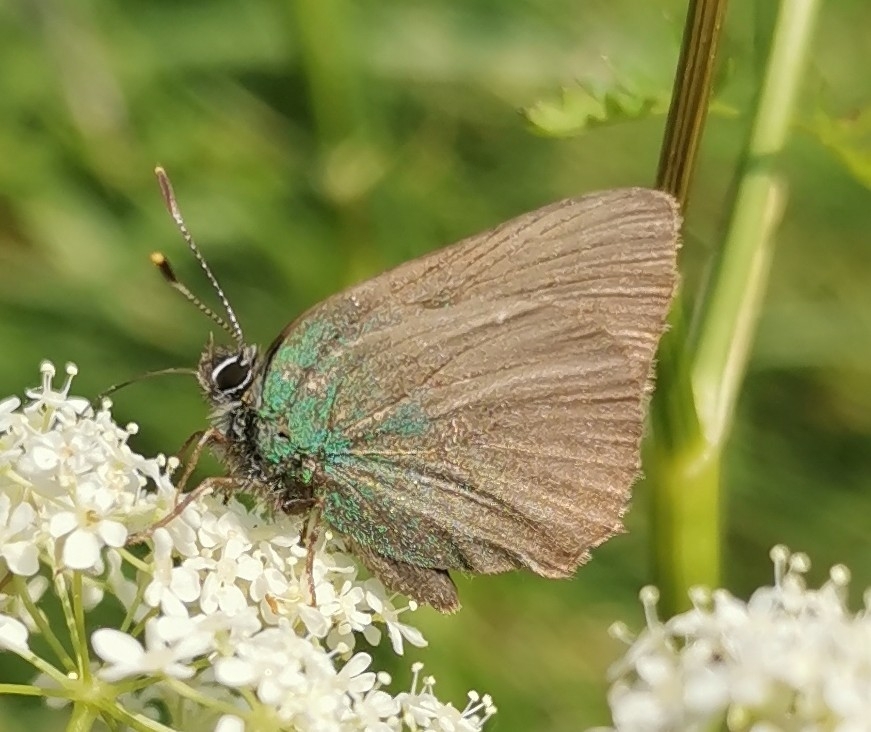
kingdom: Animalia
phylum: Arthropoda
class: Insecta
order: Lepidoptera
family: Lycaenidae
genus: Callophrys
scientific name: Callophrys rubi
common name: Green hairstreak
